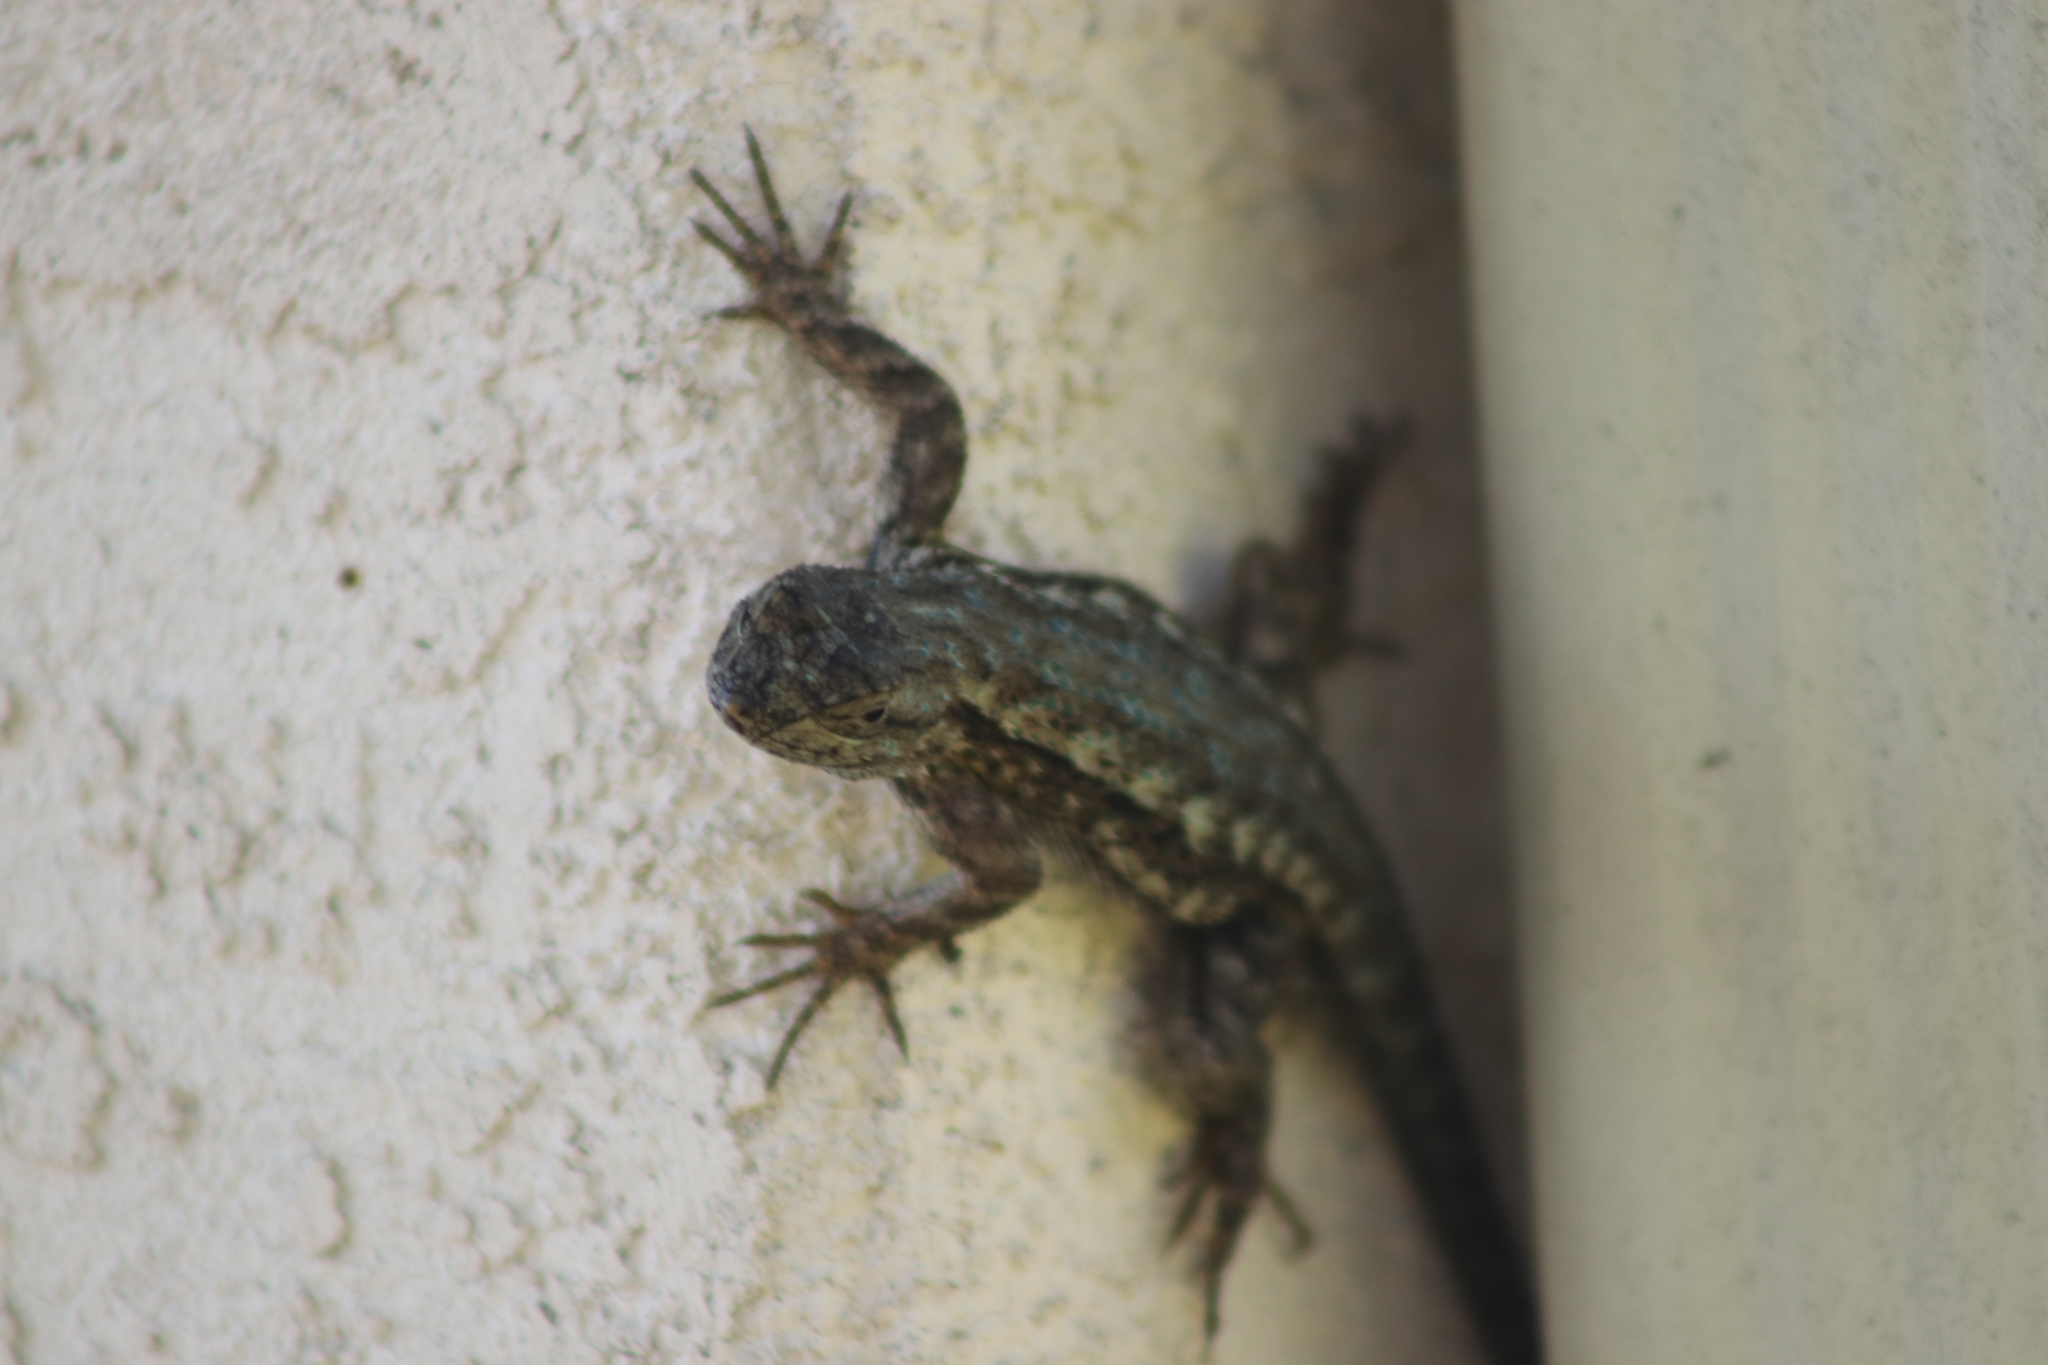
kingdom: Animalia
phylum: Chordata
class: Squamata
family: Phrynosomatidae
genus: Sceloporus
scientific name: Sceloporus occidentalis
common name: Western fence lizard
